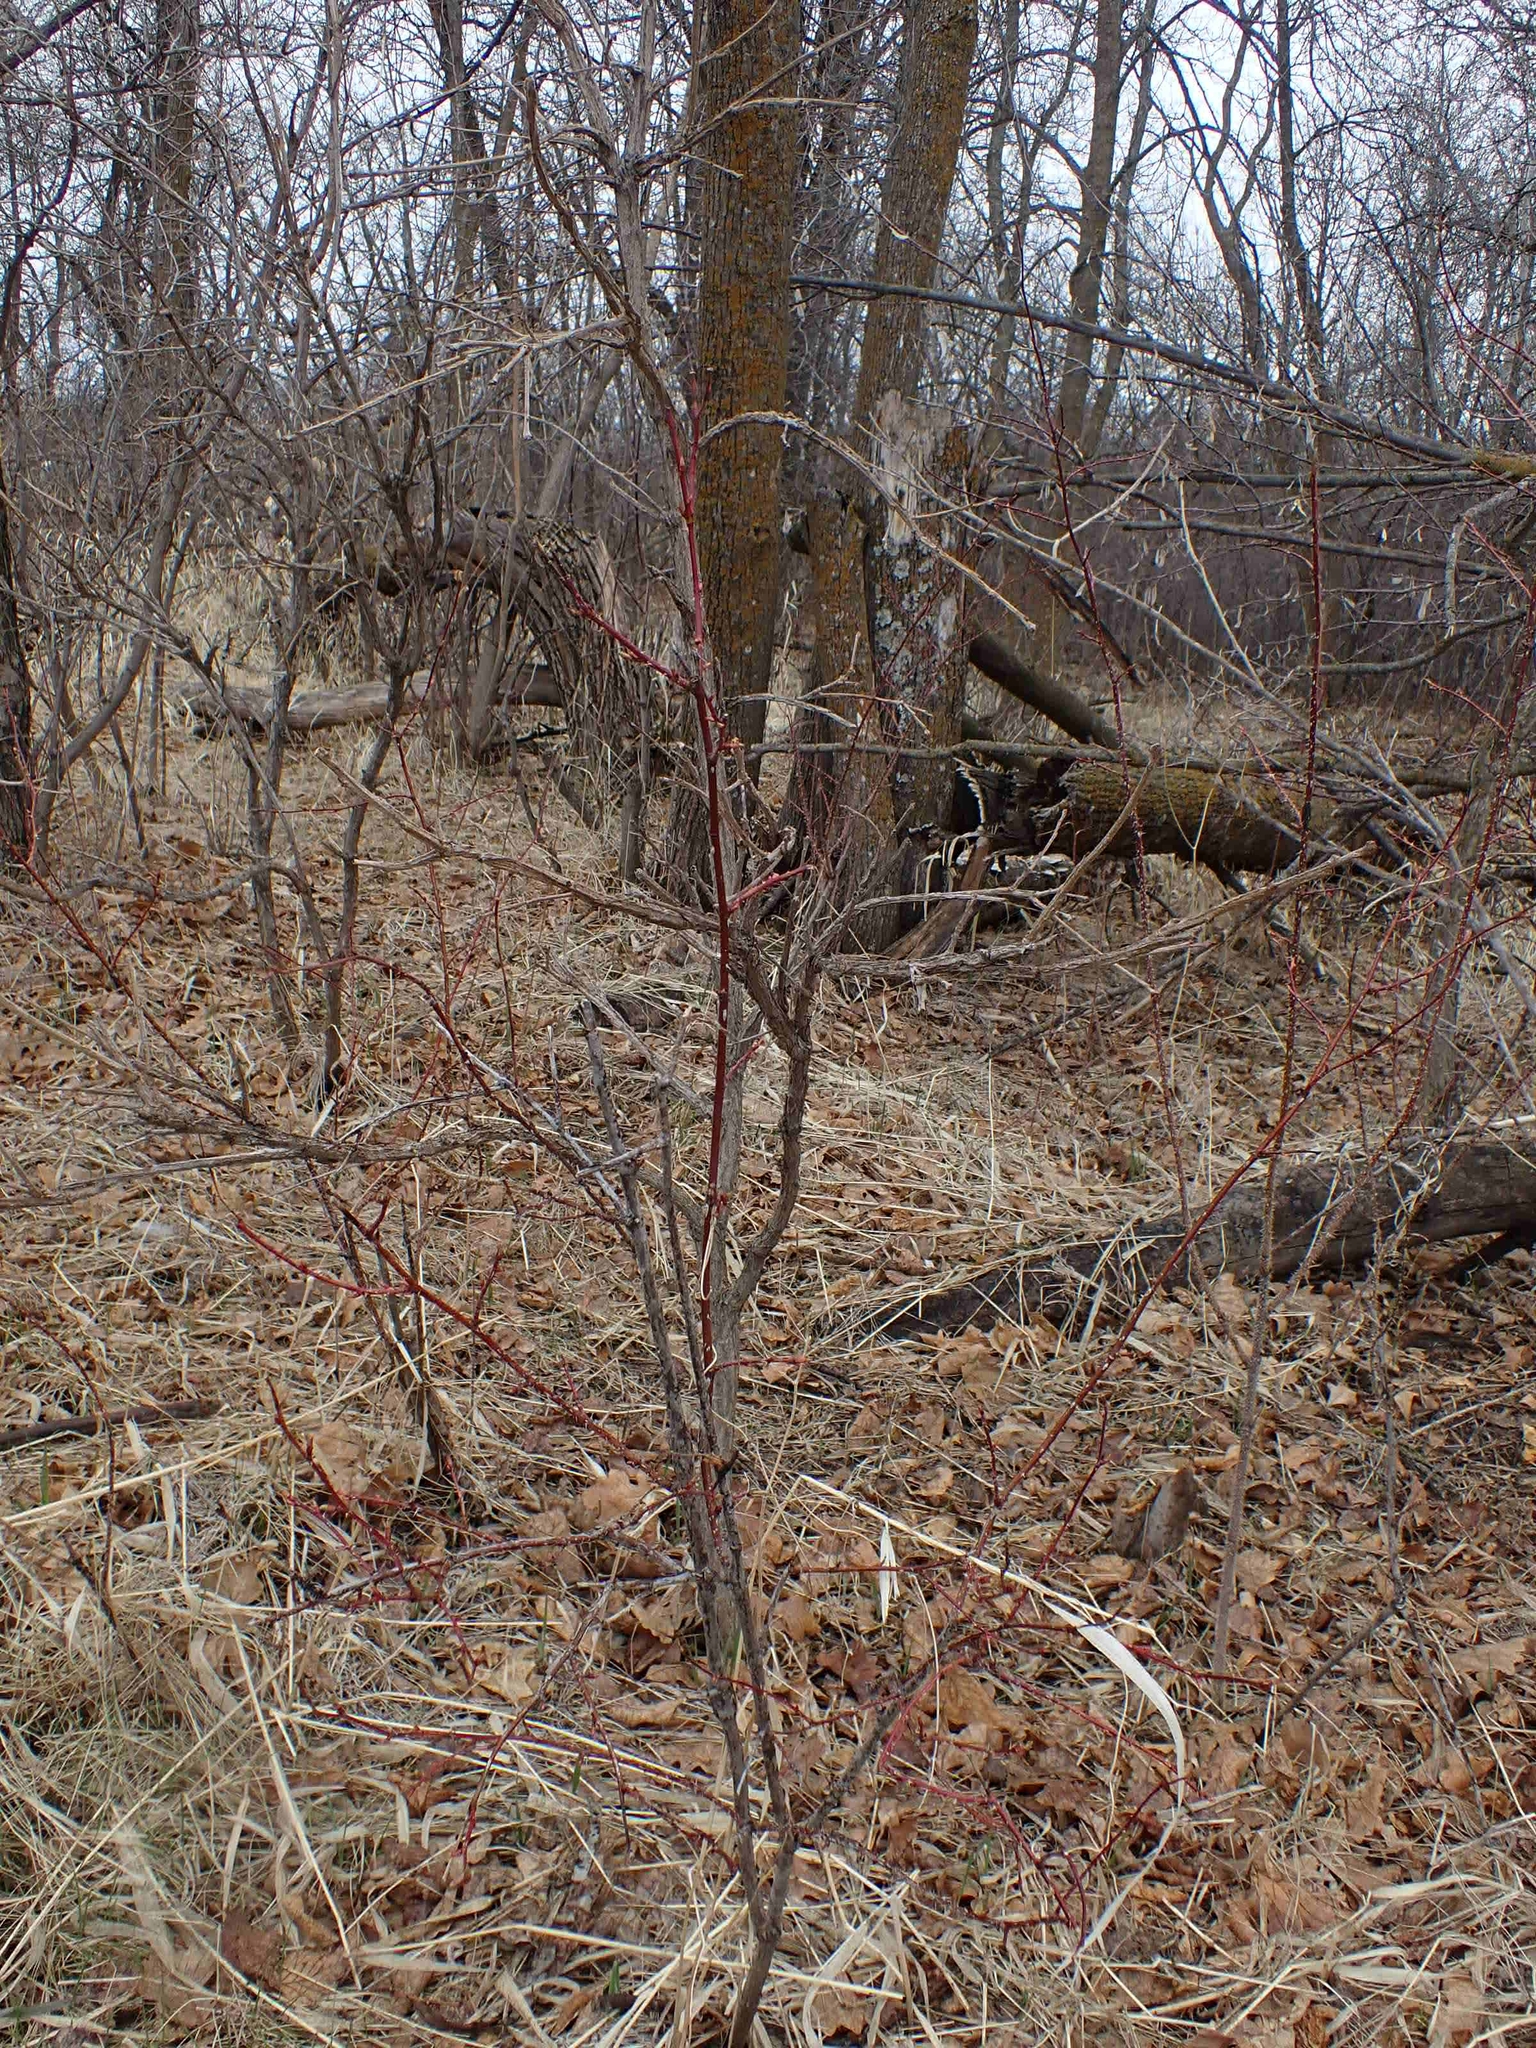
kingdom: Plantae
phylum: Tracheophyta
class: Magnoliopsida
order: Rosales
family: Rosaceae
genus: Rosa
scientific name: Rosa woodsii
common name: Woods's rose
